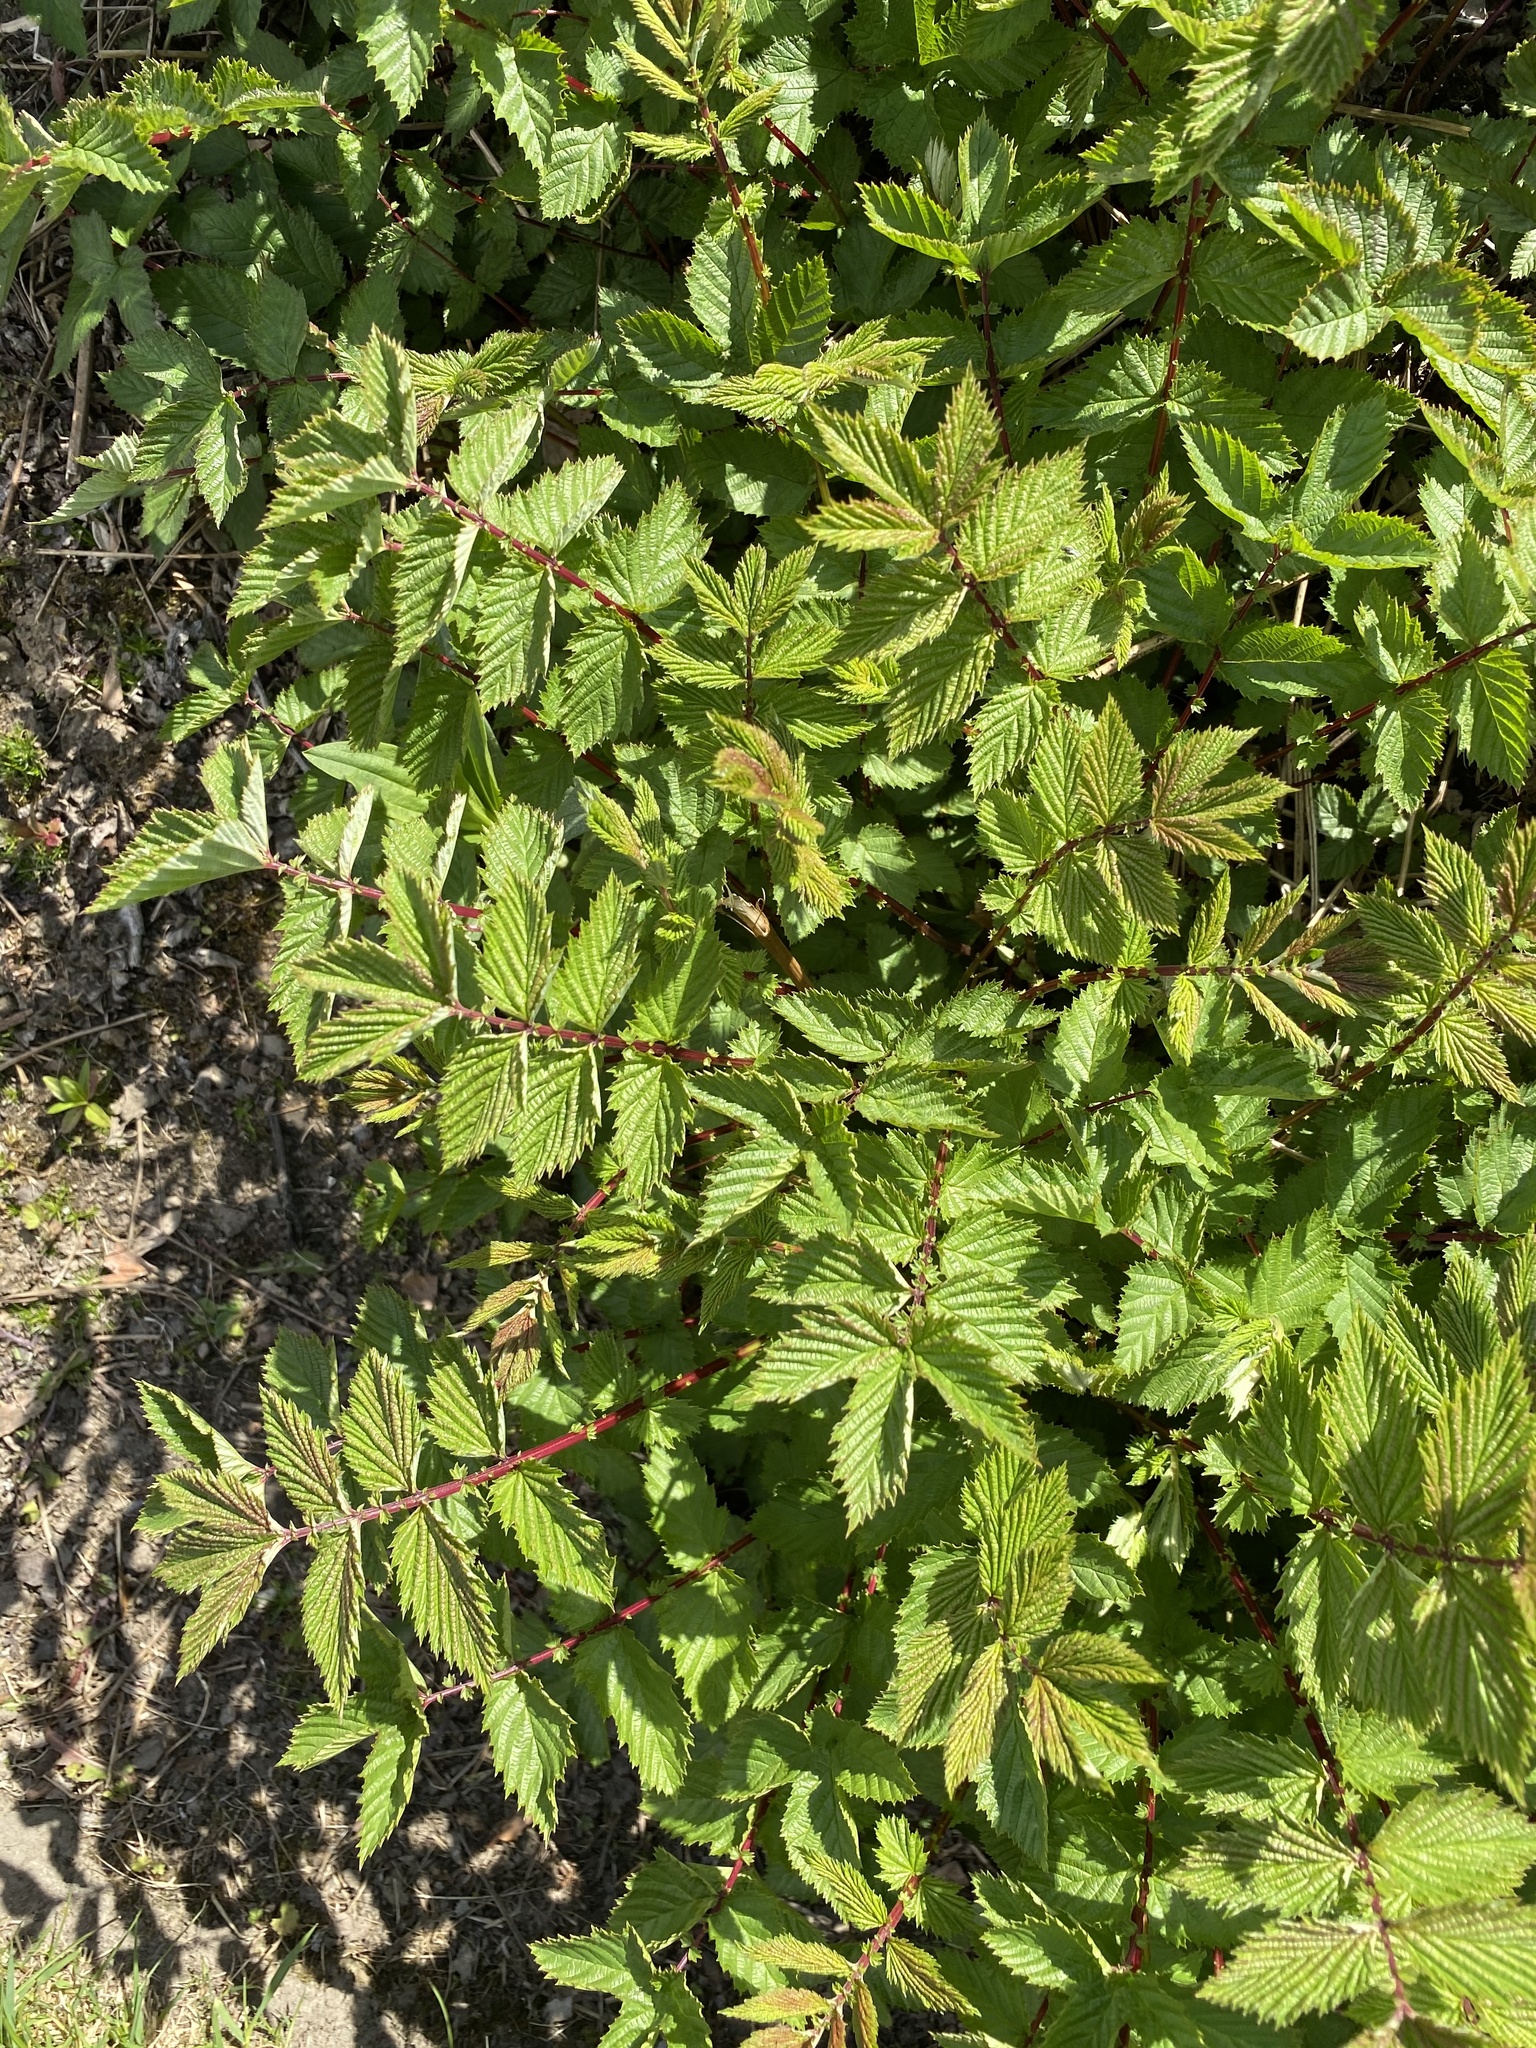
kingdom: Plantae
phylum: Tracheophyta
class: Magnoliopsida
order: Rosales
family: Rosaceae
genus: Filipendula
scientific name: Filipendula ulmaria
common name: Meadowsweet
